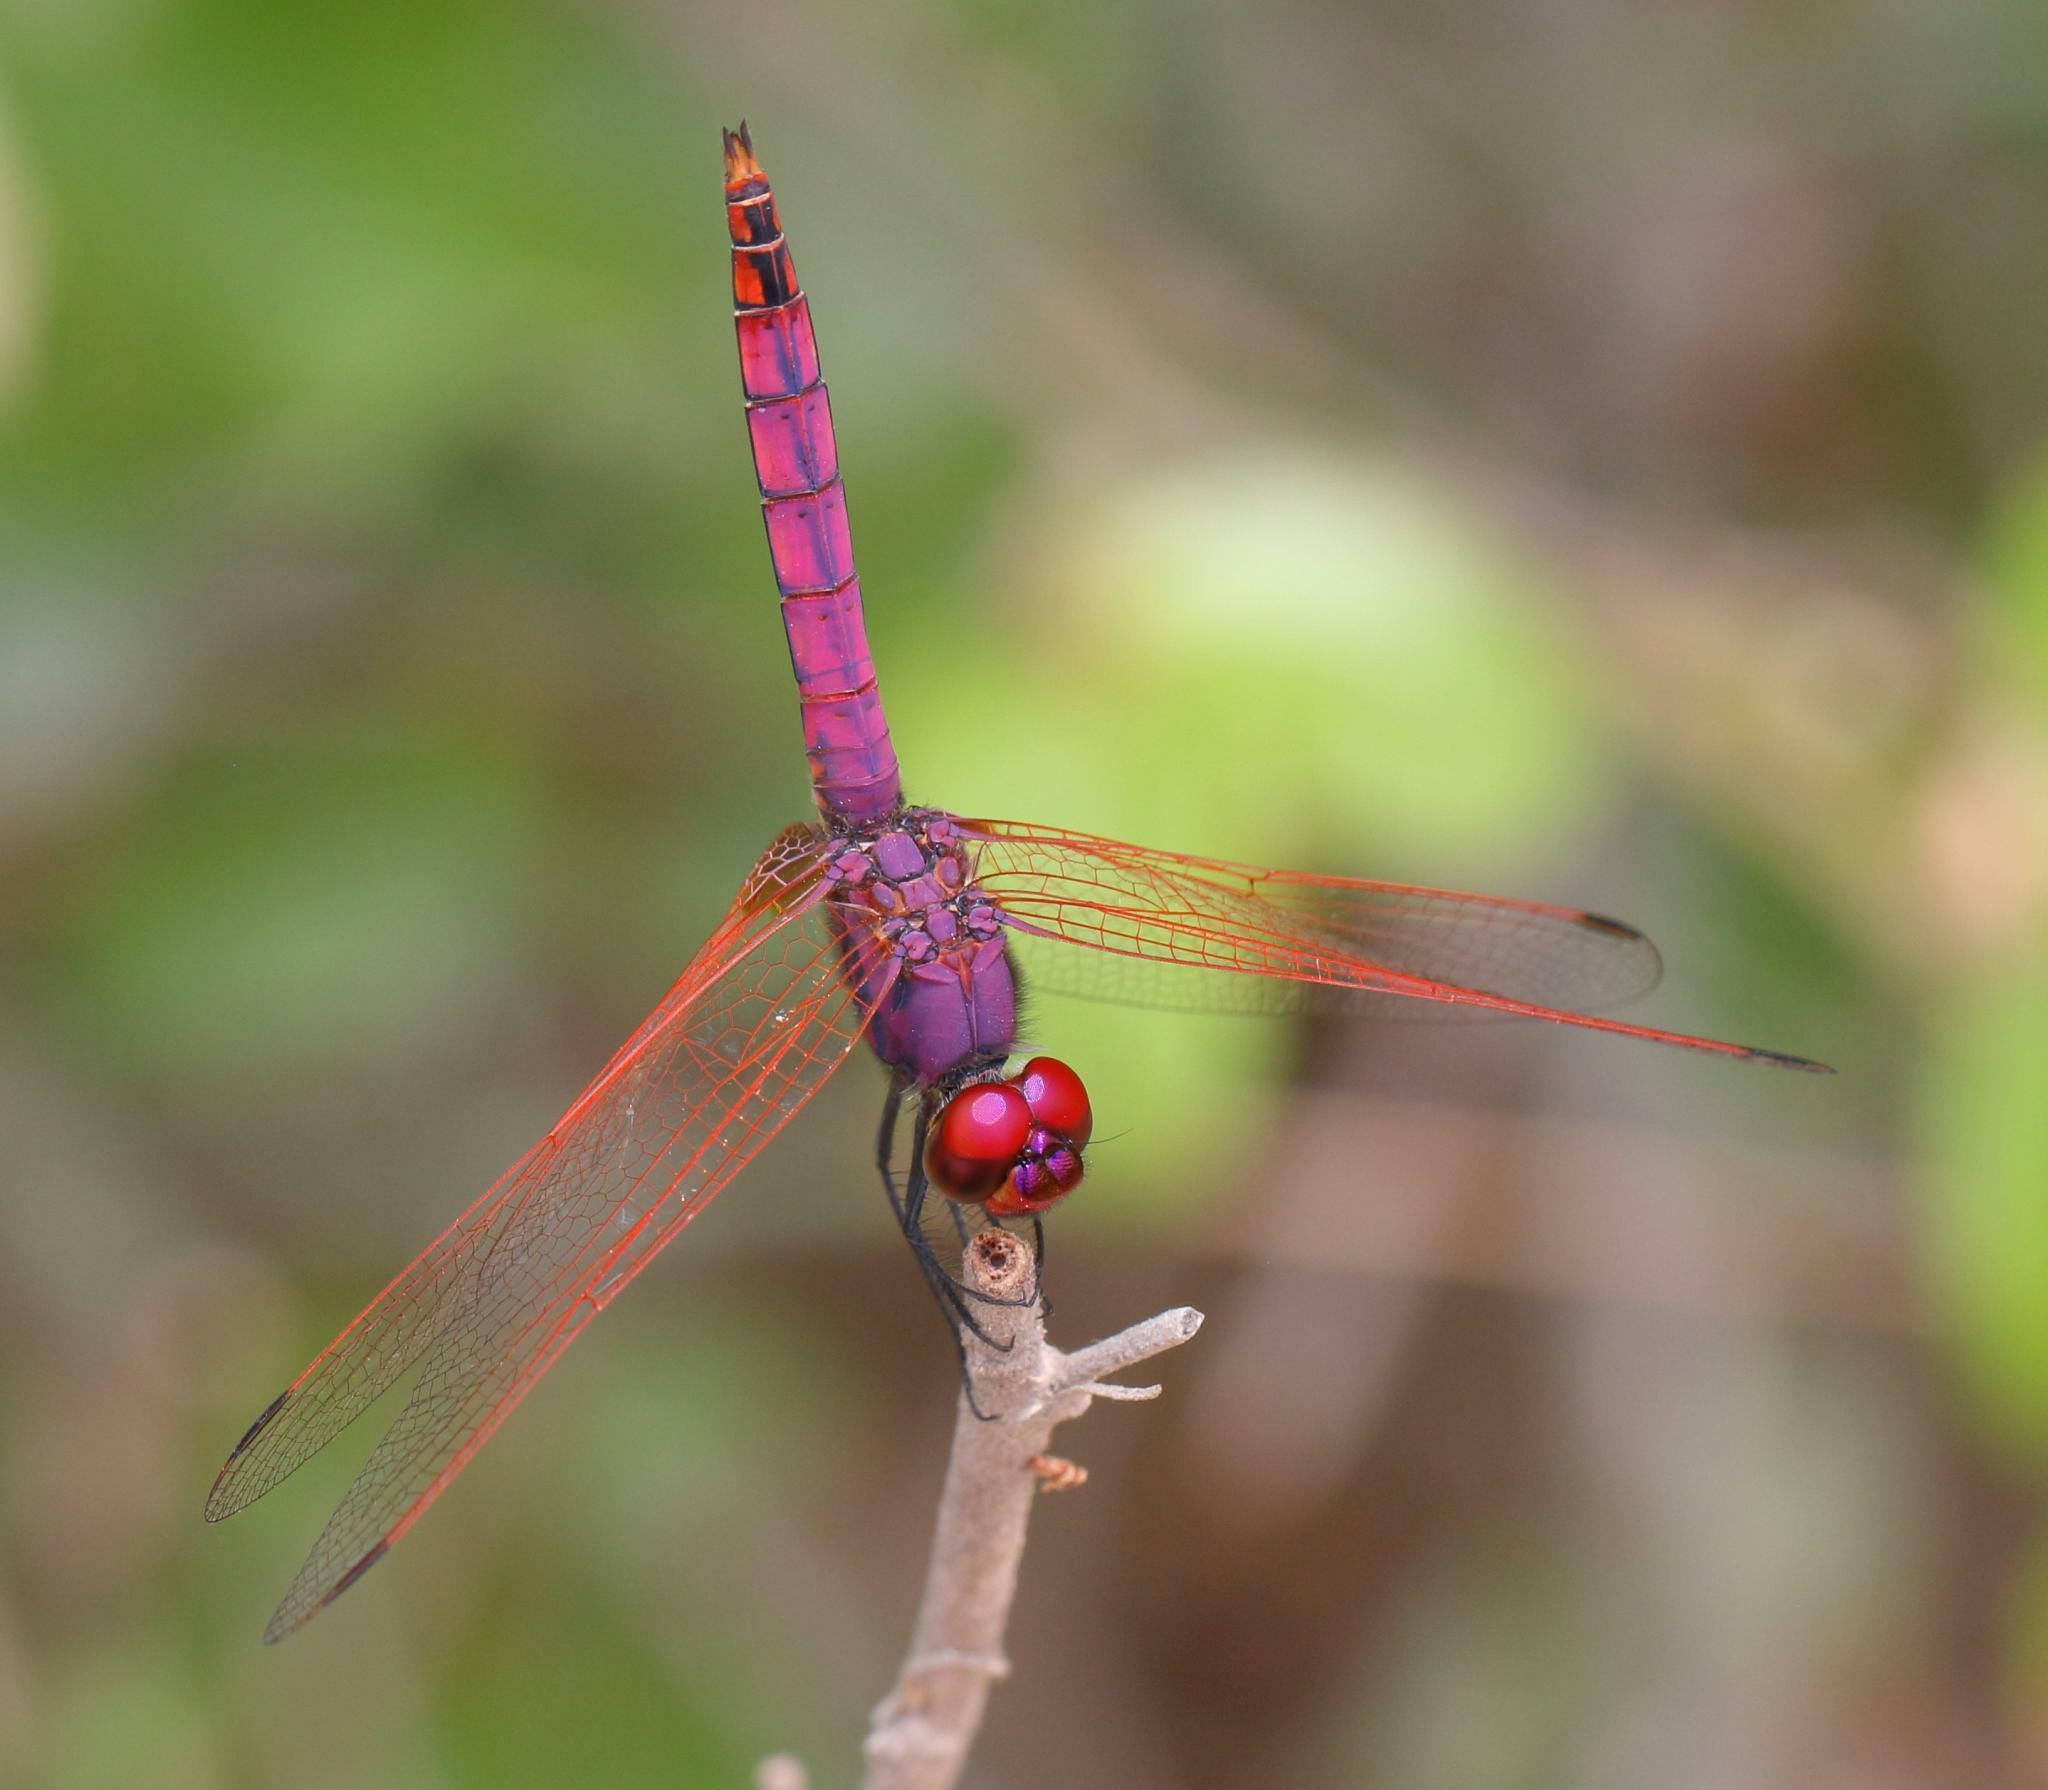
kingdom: Animalia
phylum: Arthropoda
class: Insecta
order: Odonata
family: Libellulidae
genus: Trithemis
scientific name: Trithemis annulata
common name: Violet dropwing
